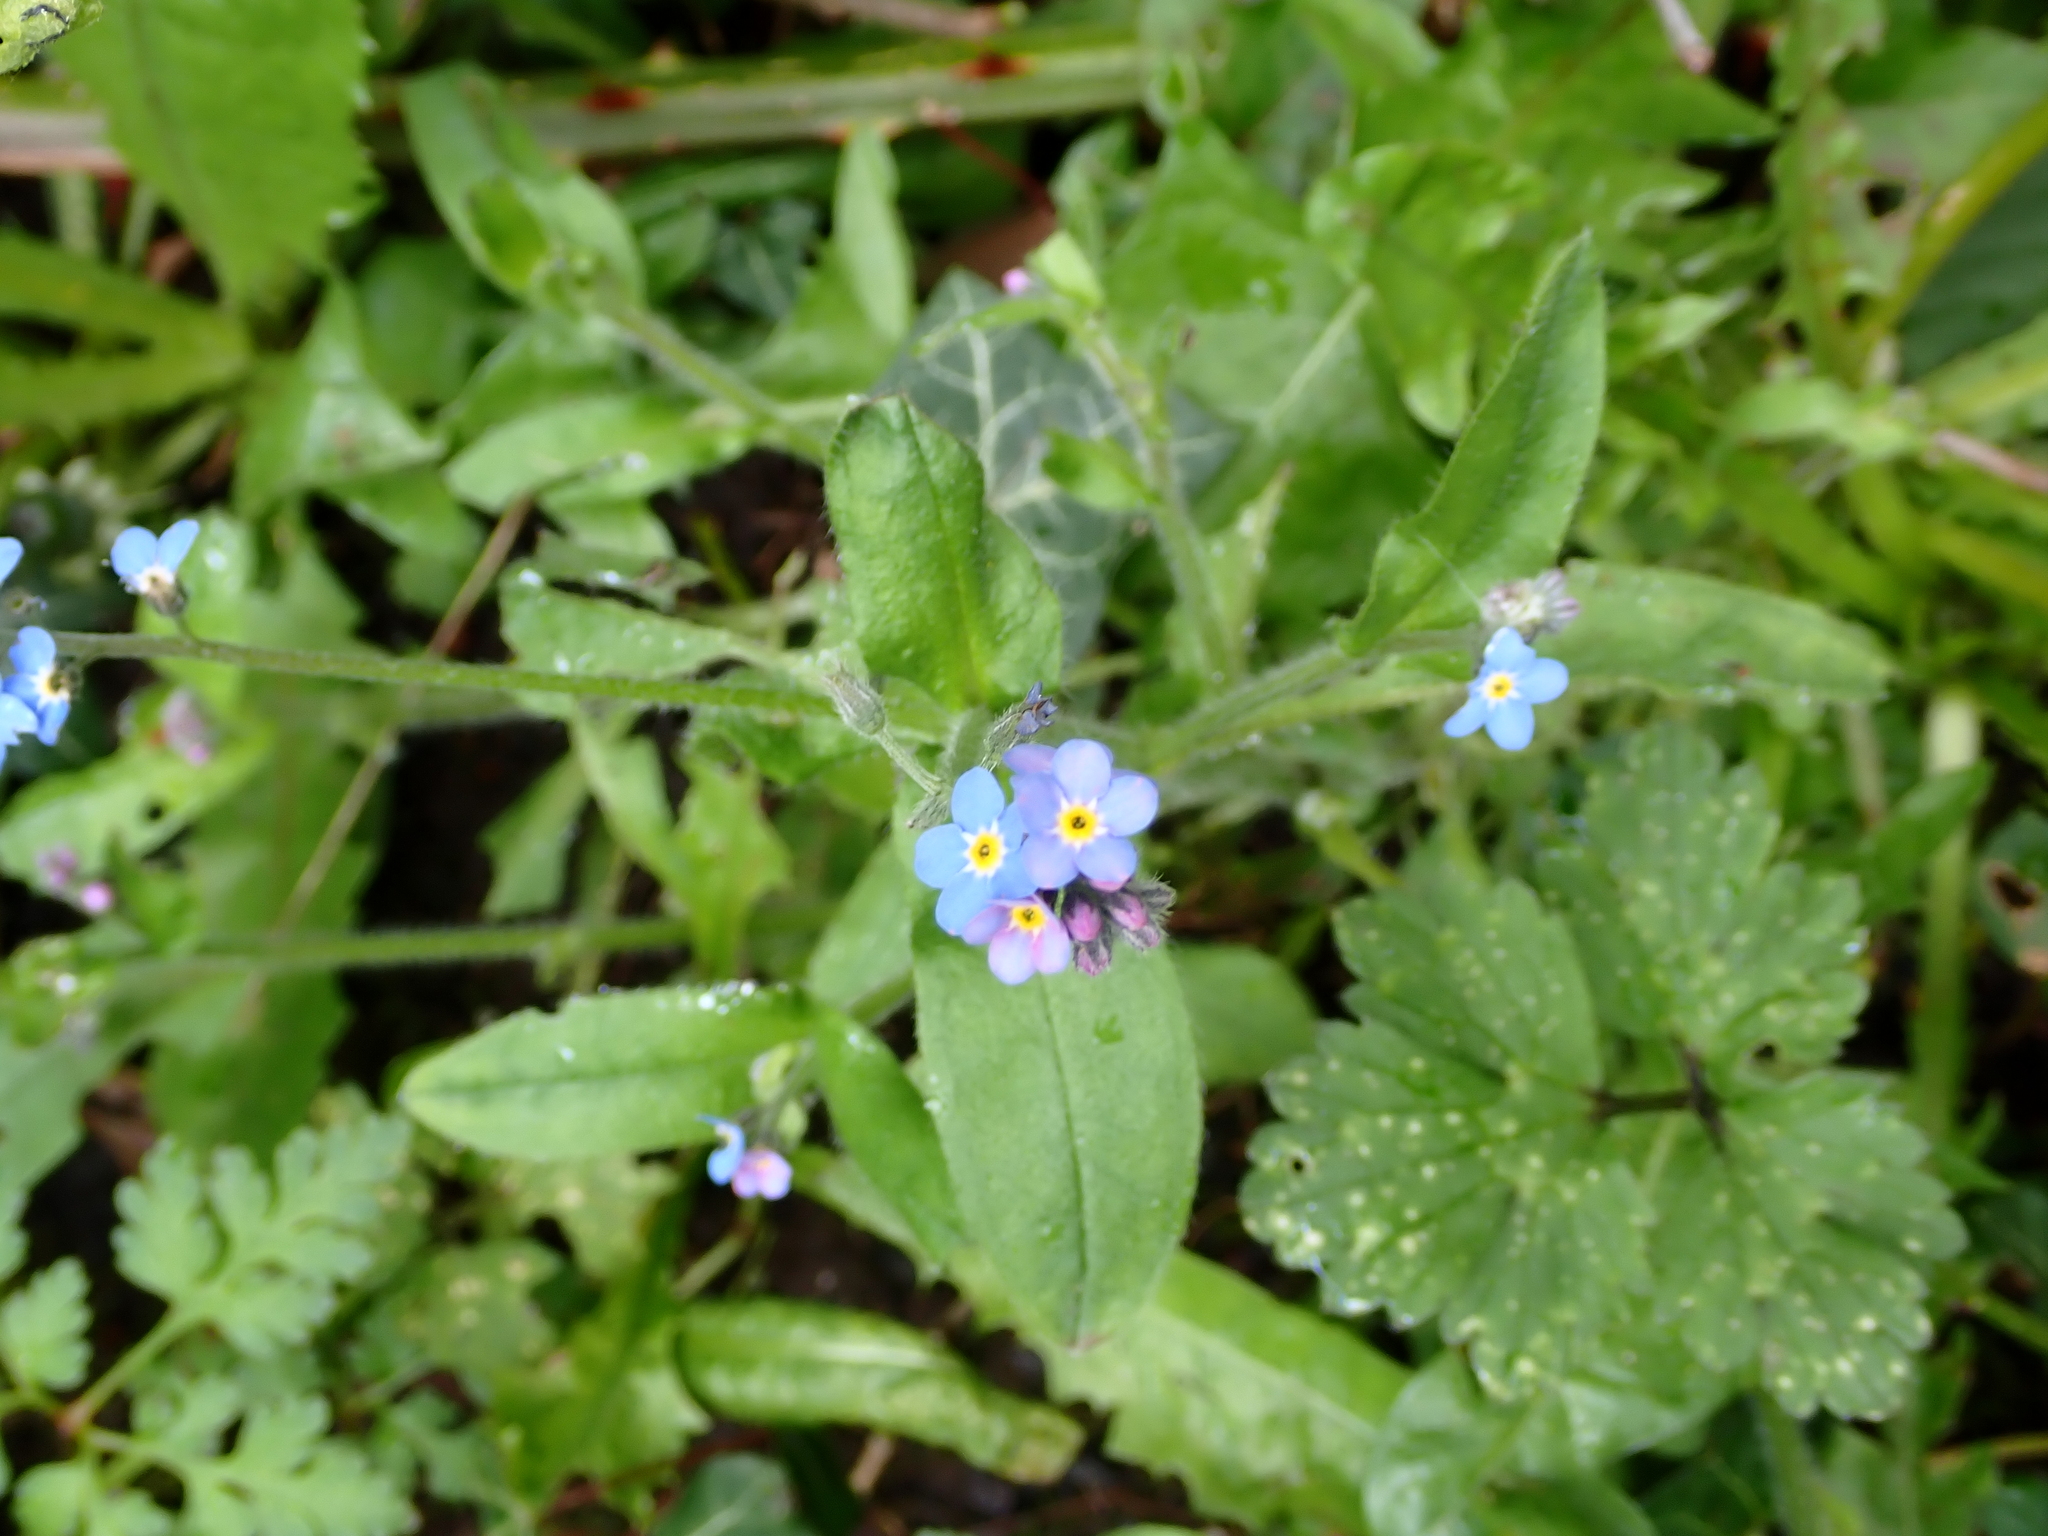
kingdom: Plantae
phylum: Tracheophyta
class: Magnoliopsida
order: Boraginales
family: Boraginaceae
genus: Myosotis
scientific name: Myosotis sylvatica
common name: Wood forget-me-not
